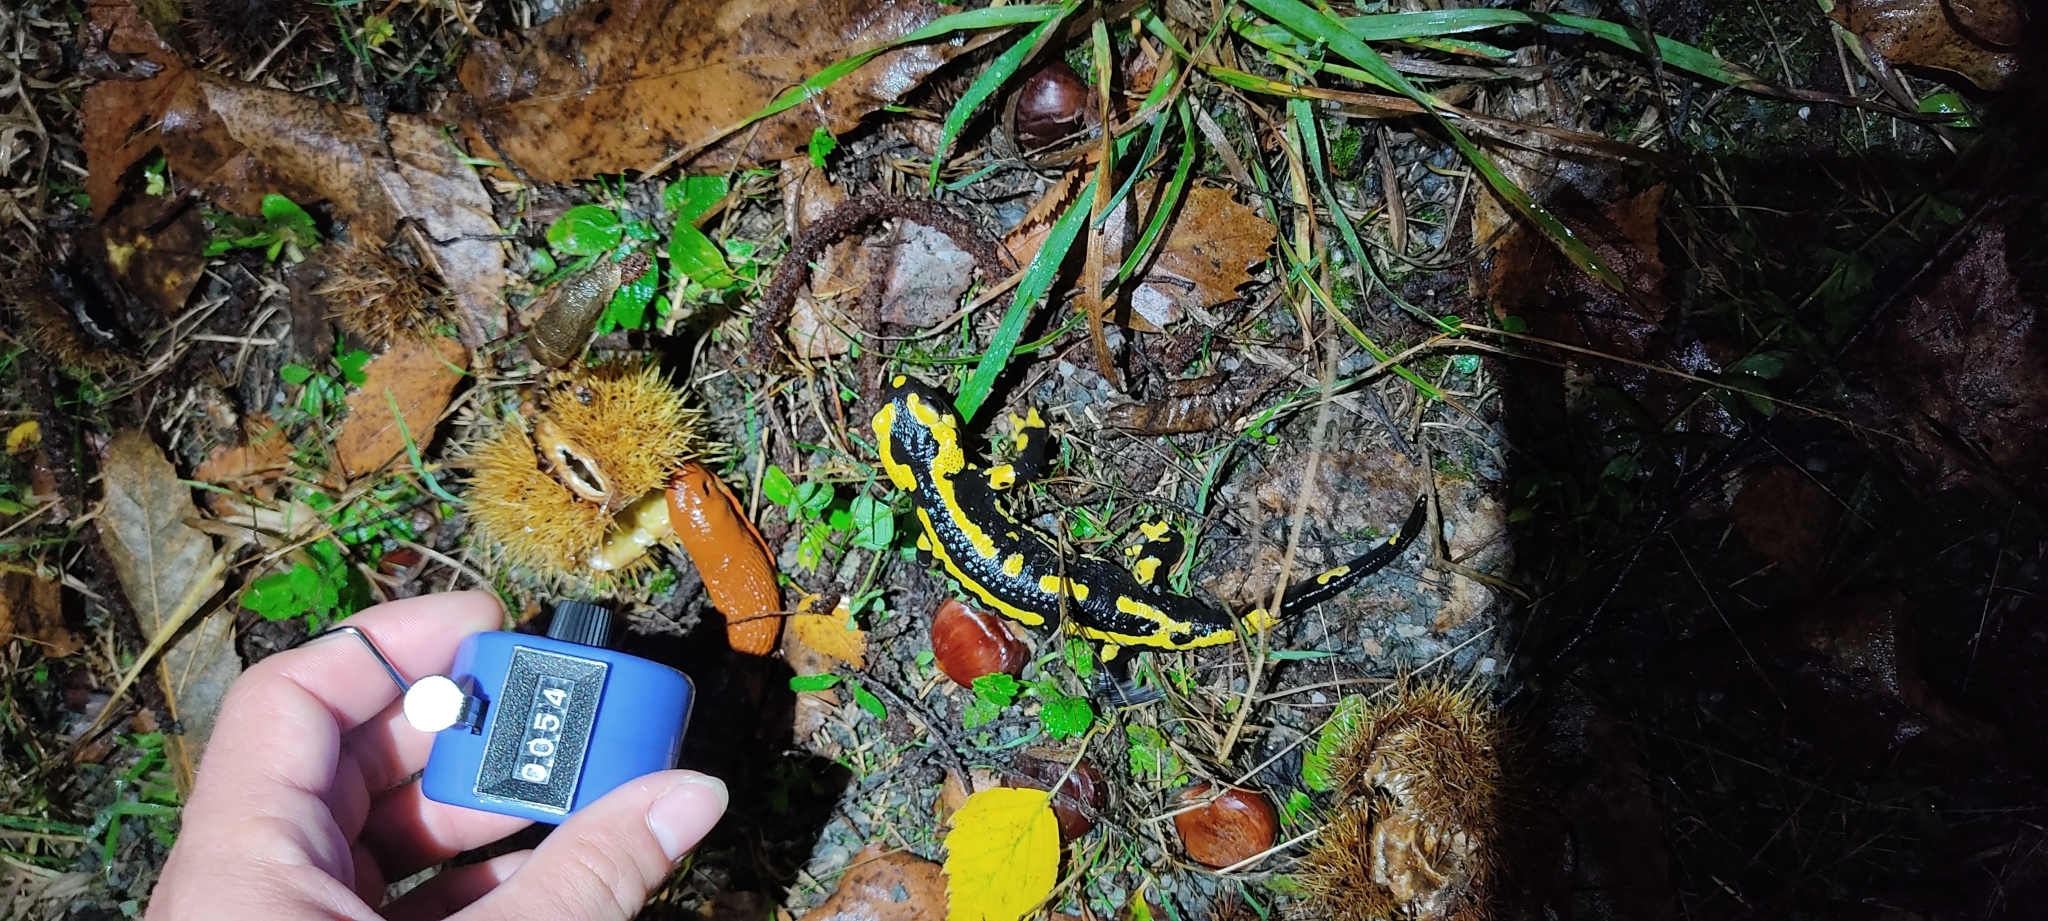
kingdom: Animalia
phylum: Chordata
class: Amphibia
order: Caudata
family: Salamandridae
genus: Salamandra
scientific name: Salamandra salamandra
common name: Fire salamander
